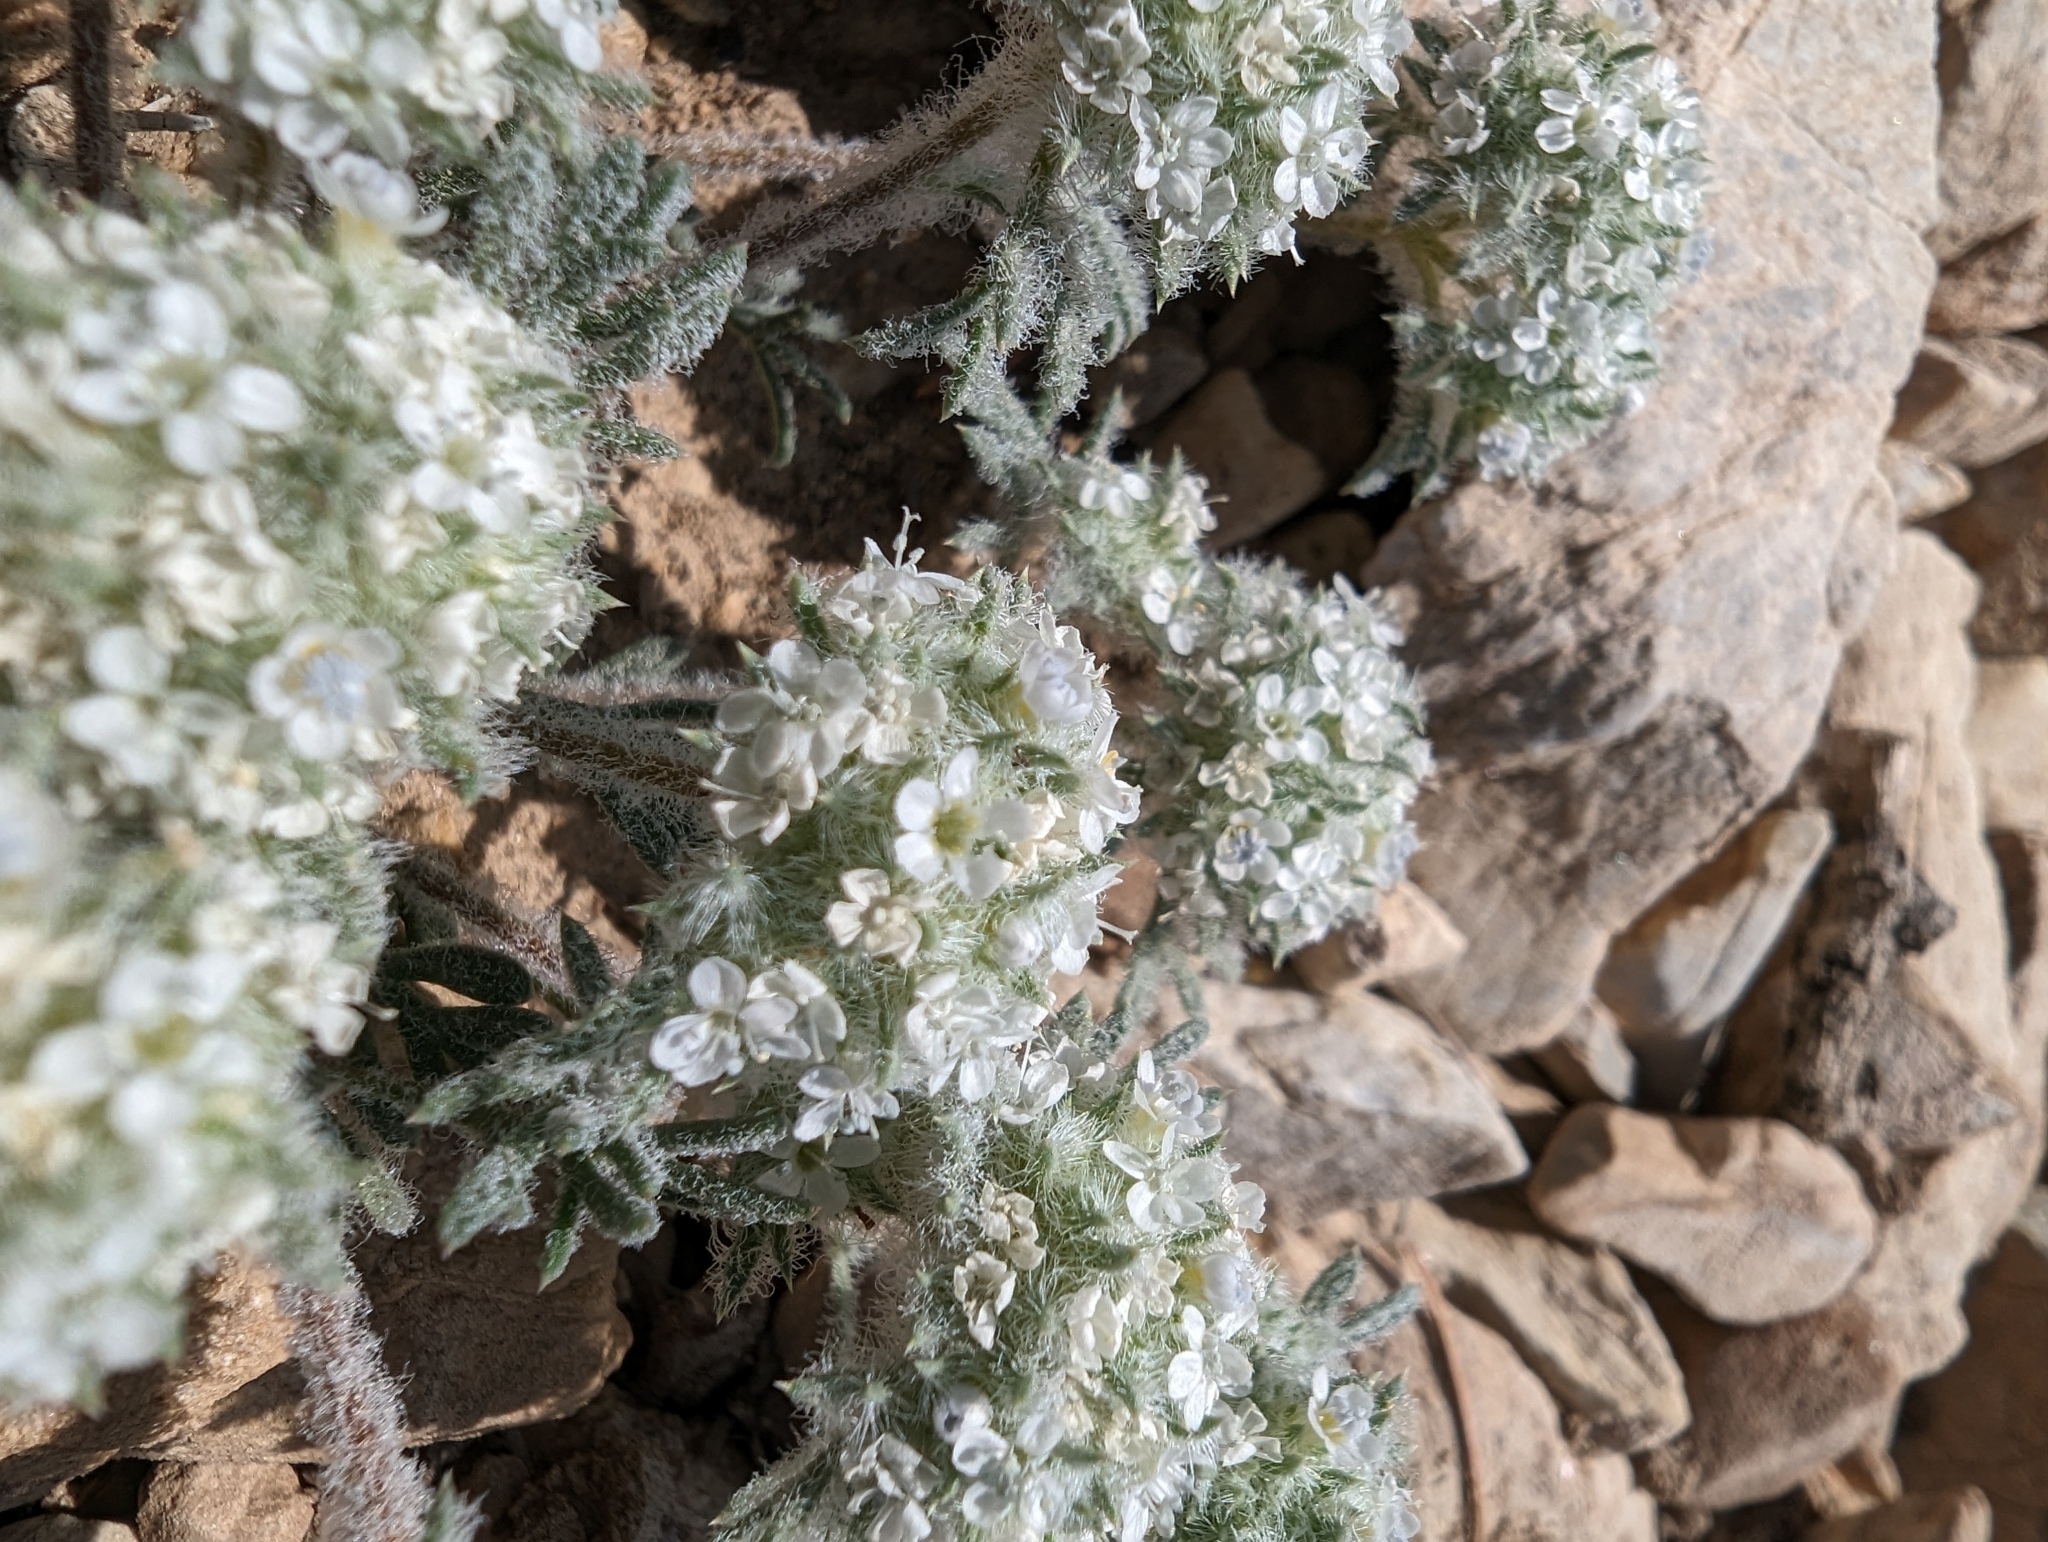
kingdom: Plantae
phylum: Tracheophyta
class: Magnoliopsida
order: Ericales
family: Polemoniaceae
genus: Ipomopsis
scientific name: Ipomopsis congesta
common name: Ball-head gilia
